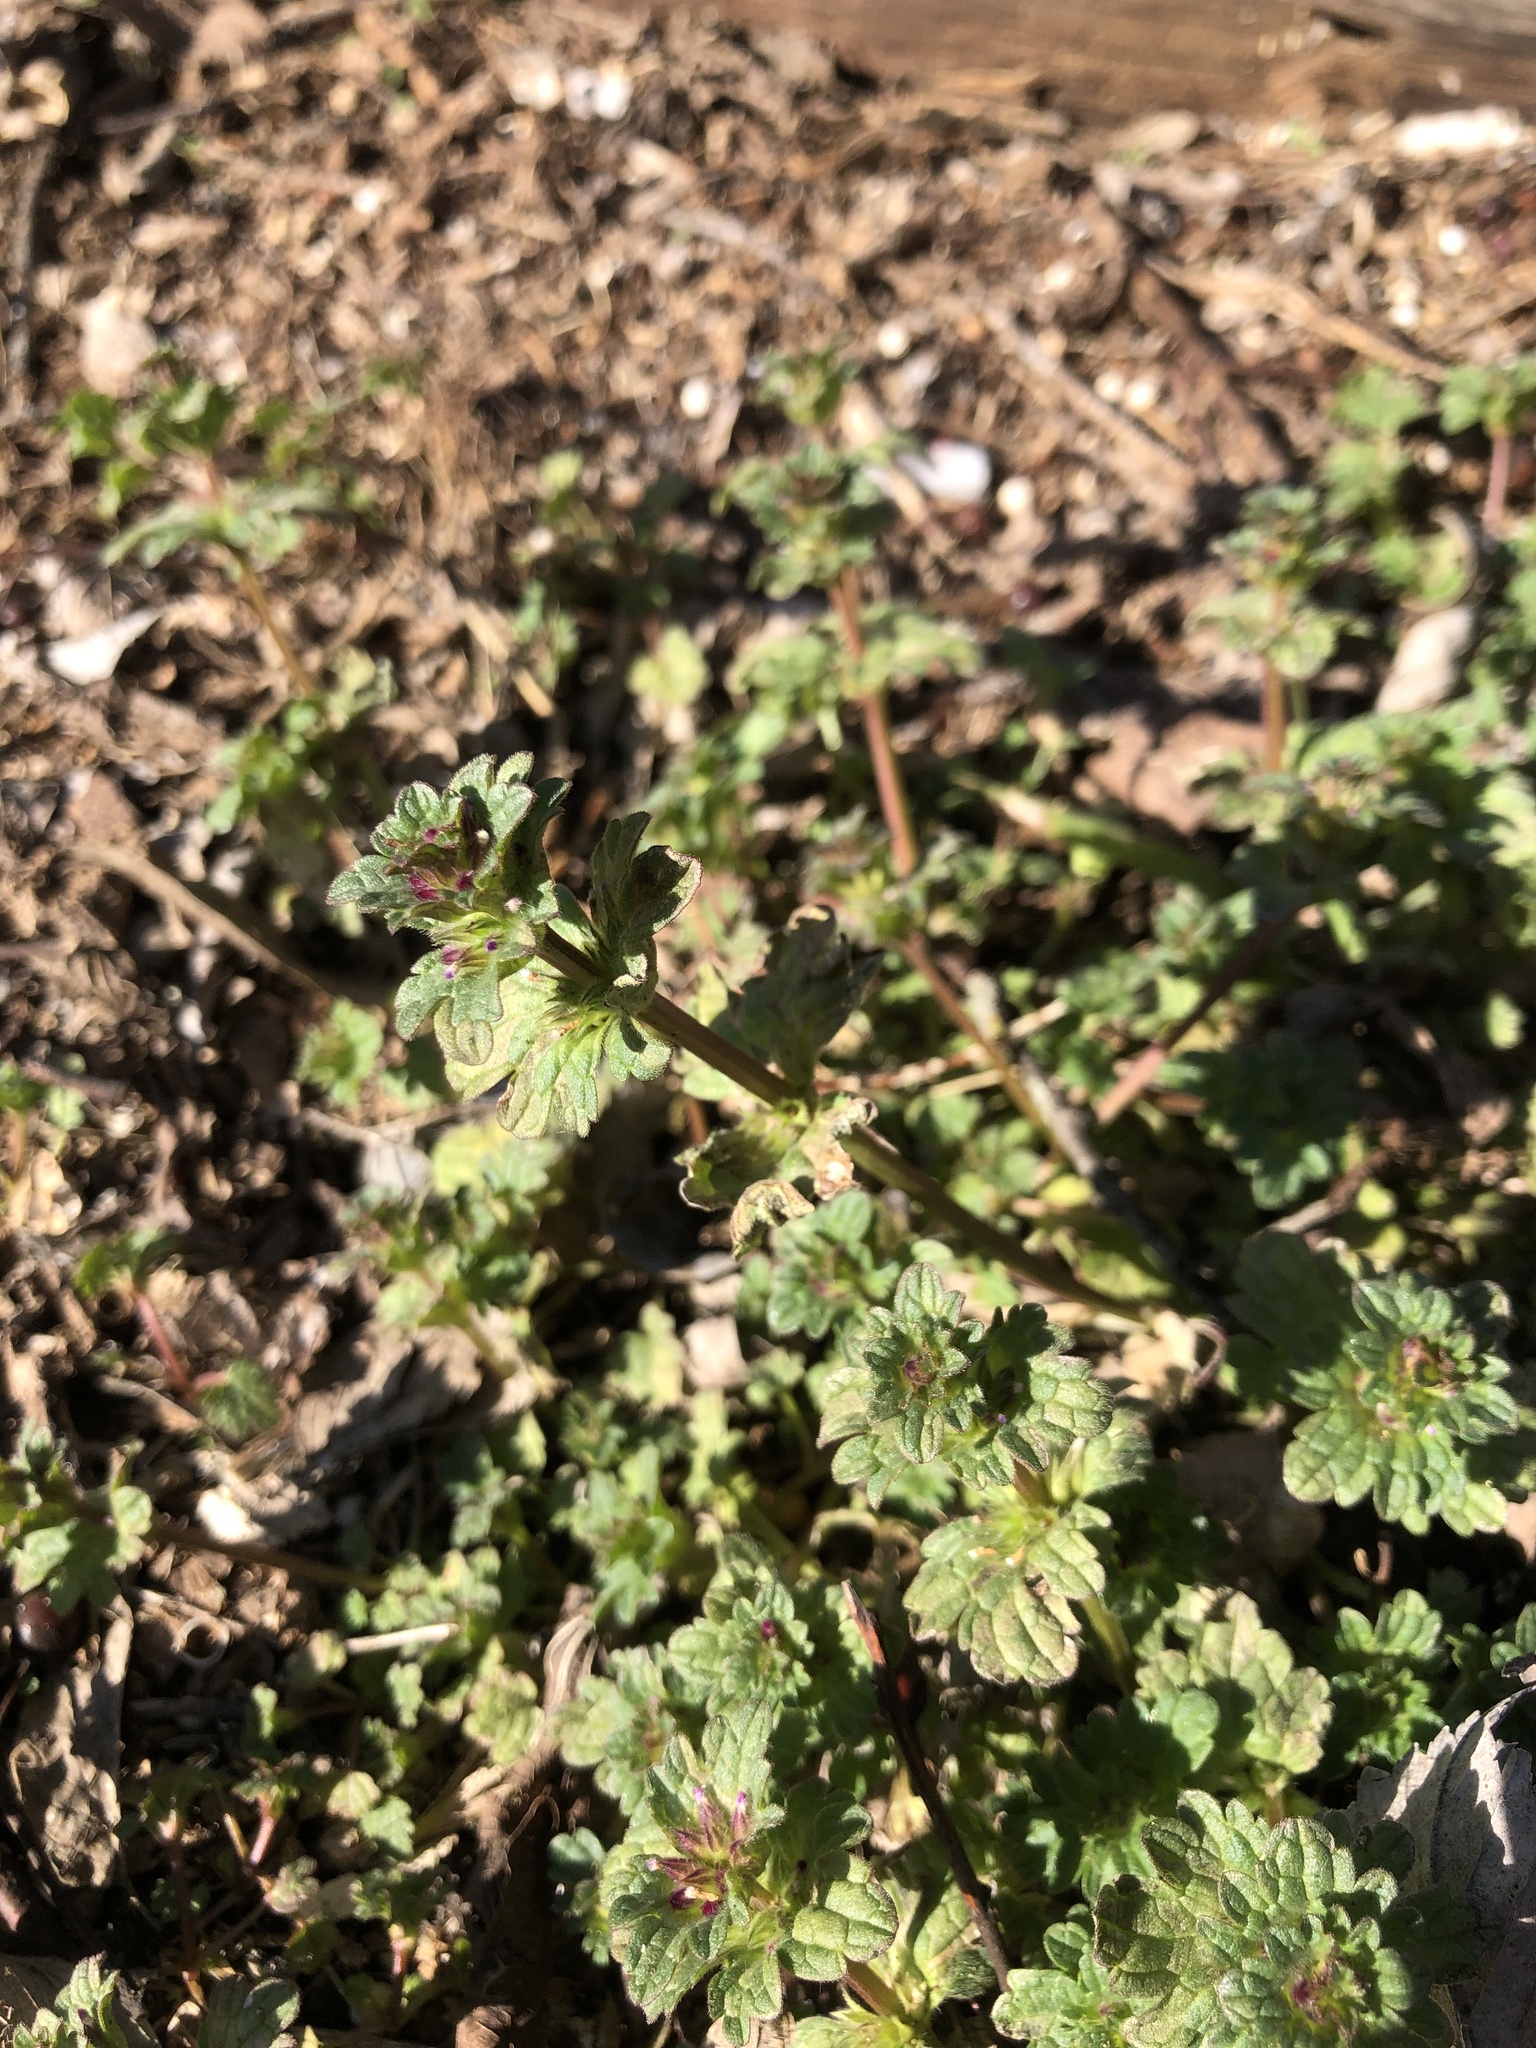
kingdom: Plantae
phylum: Tracheophyta
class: Magnoliopsida
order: Lamiales
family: Lamiaceae
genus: Lamium
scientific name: Lamium amplexicaule
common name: Henbit dead-nettle
